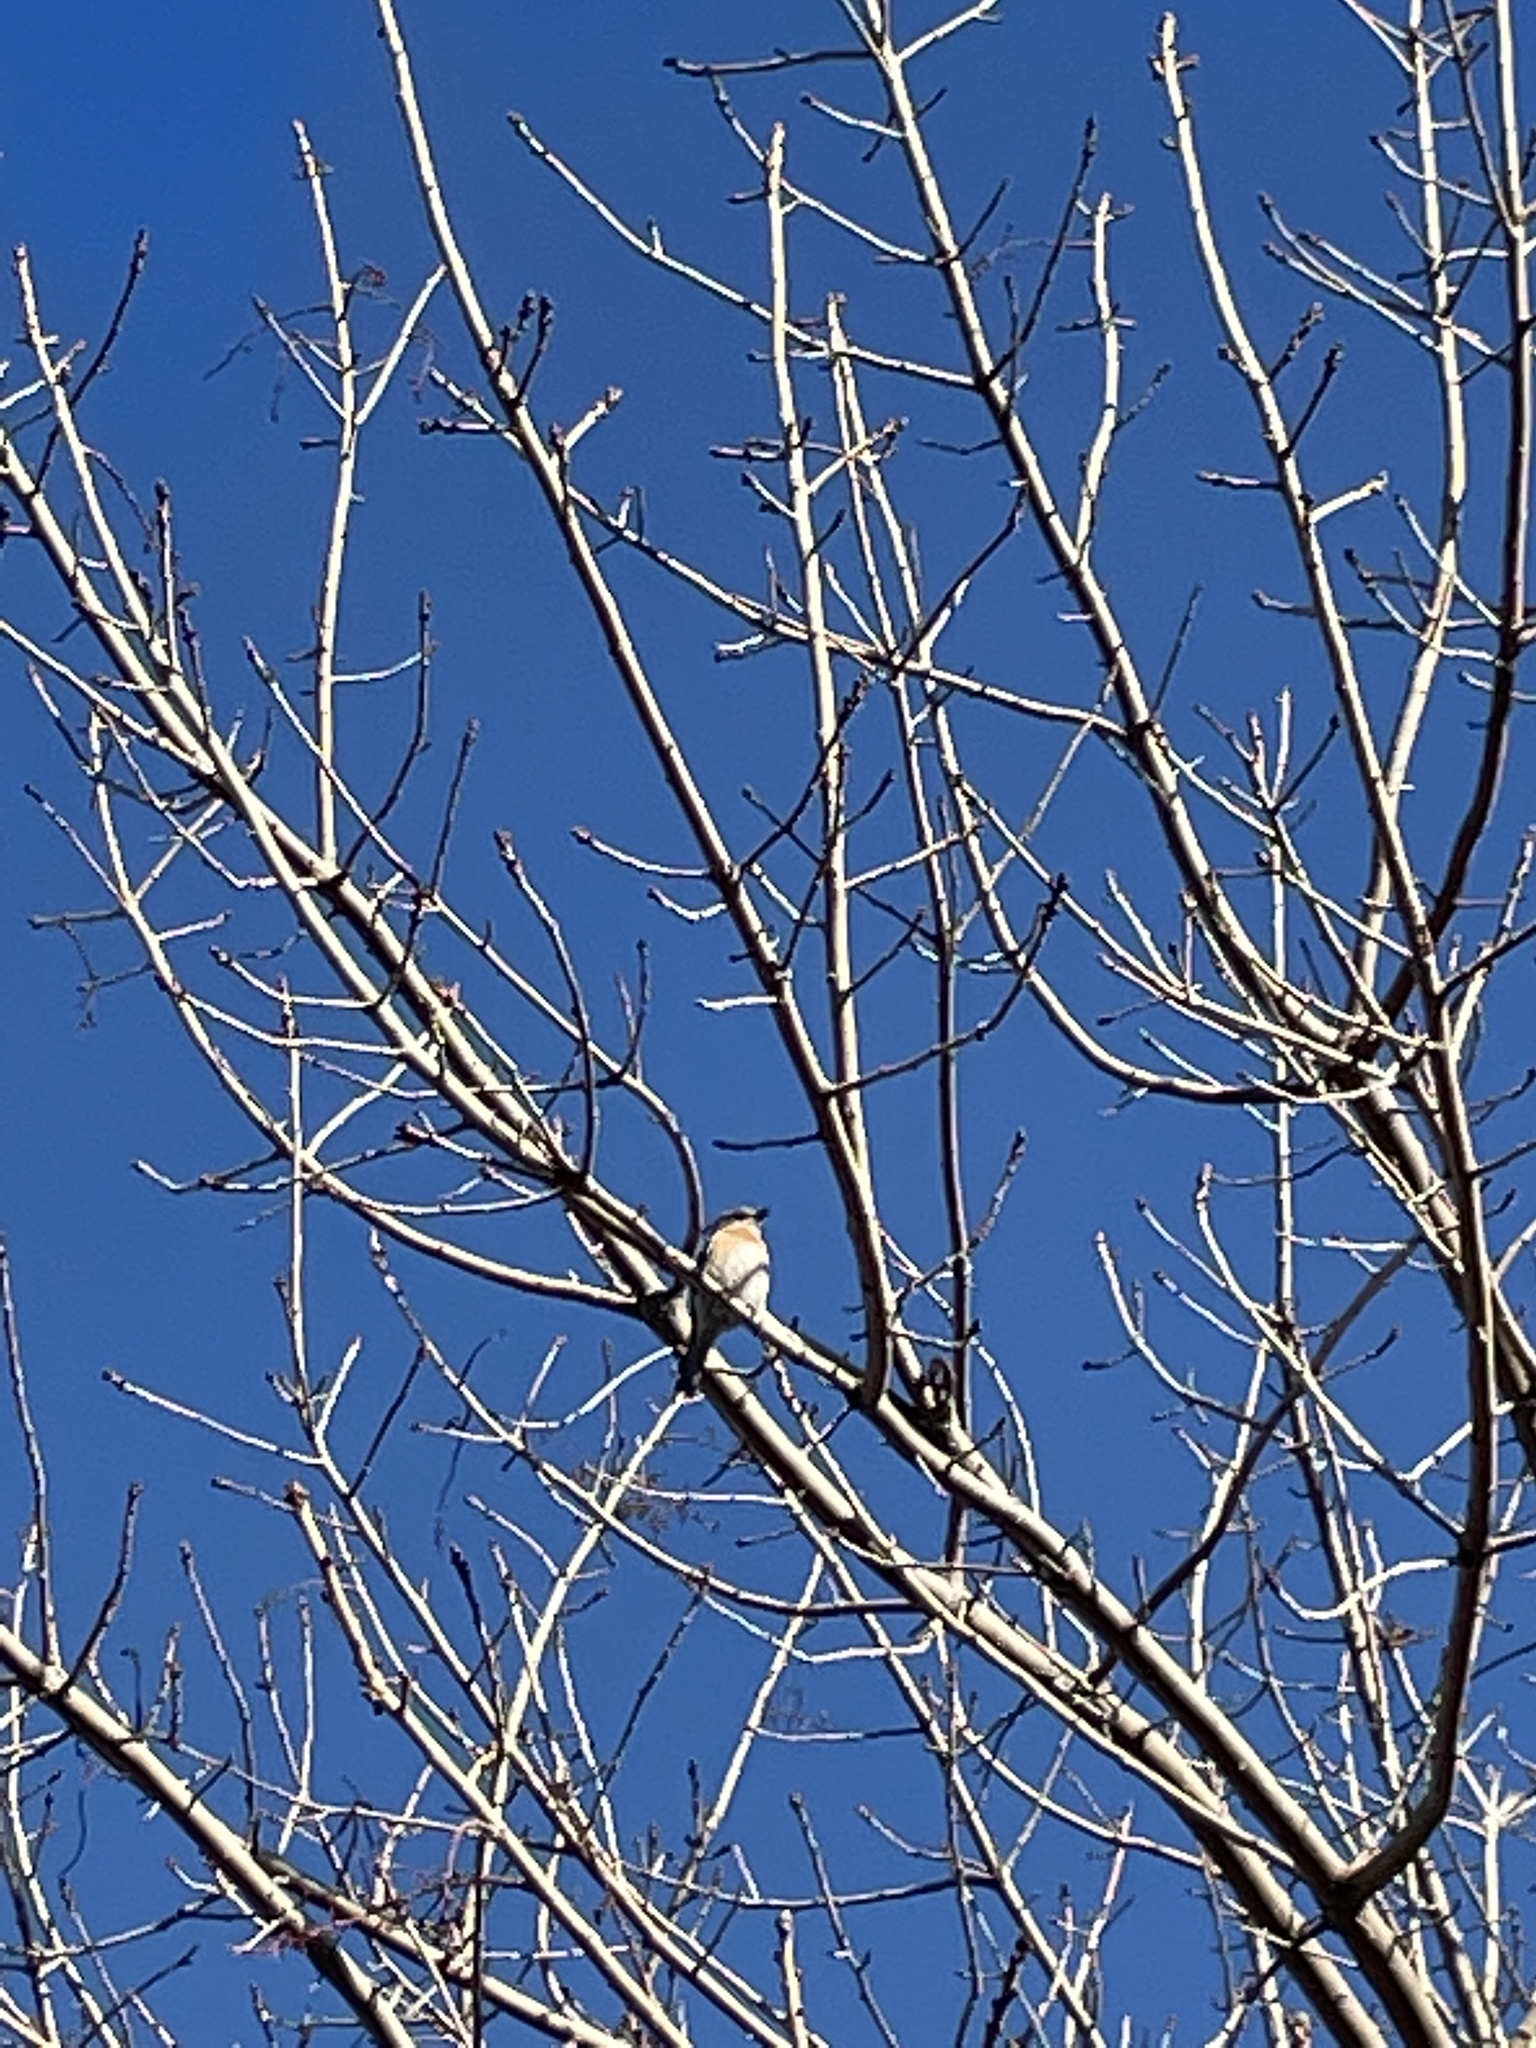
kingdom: Animalia
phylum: Chordata
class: Aves
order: Passeriformes
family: Turdidae
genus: Sialia
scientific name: Sialia mexicana
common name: Western bluebird
